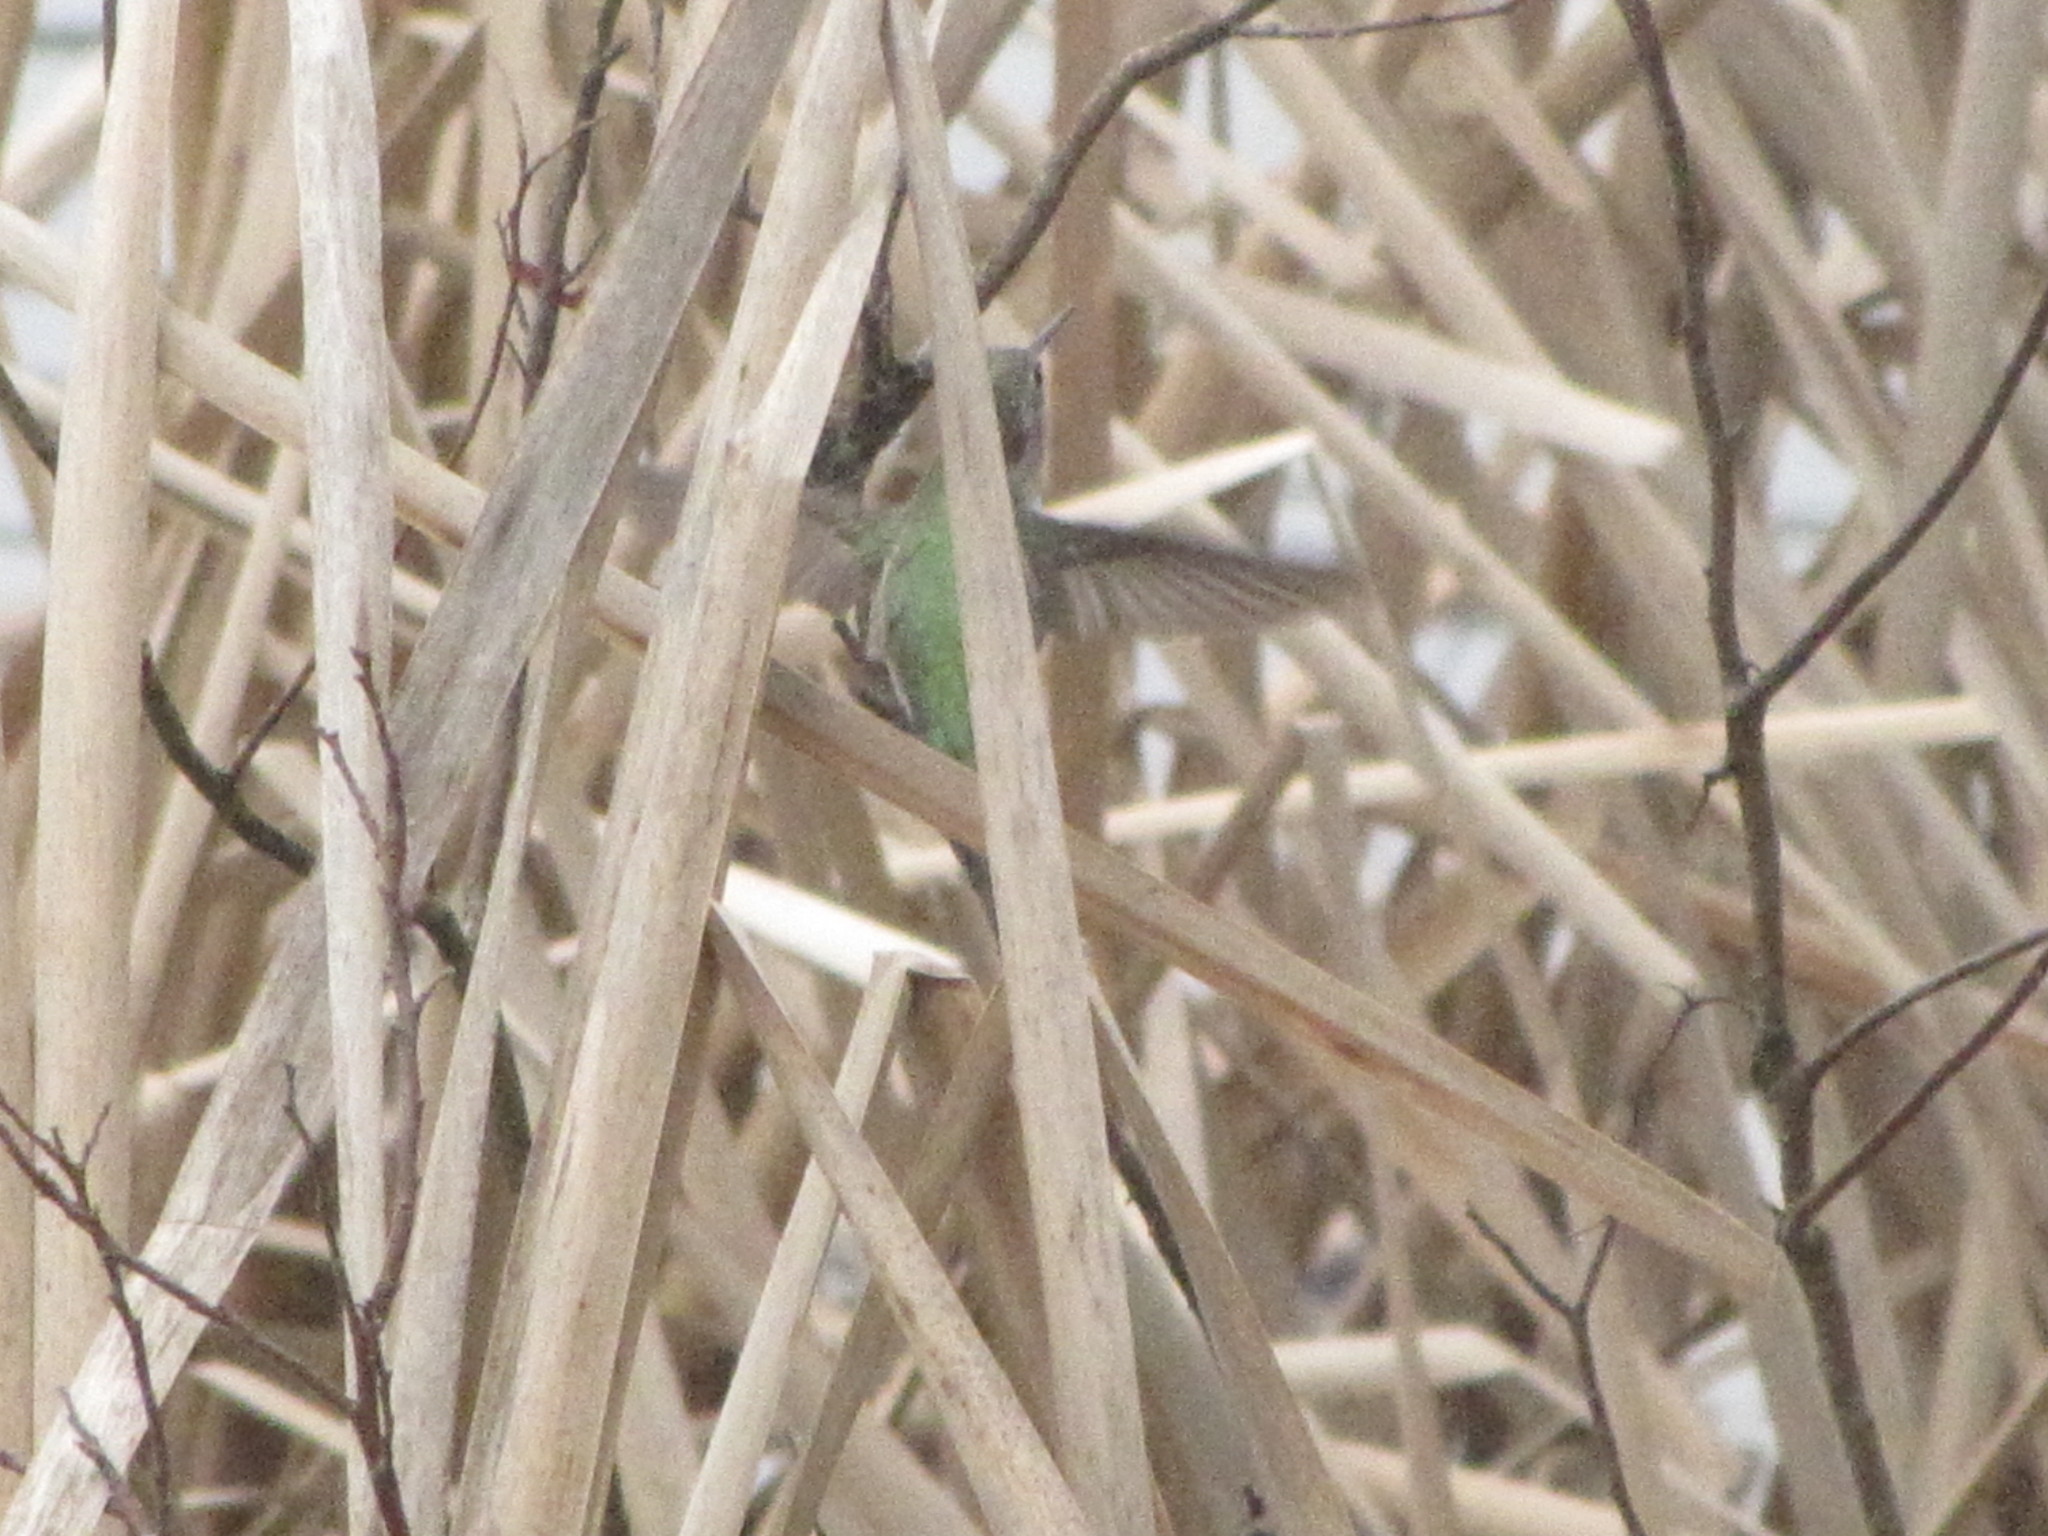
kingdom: Animalia
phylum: Chordata
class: Aves
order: Apodiformes
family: Trochilidae
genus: Calypte
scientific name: Calypte anna
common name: Anna's hummingbird
